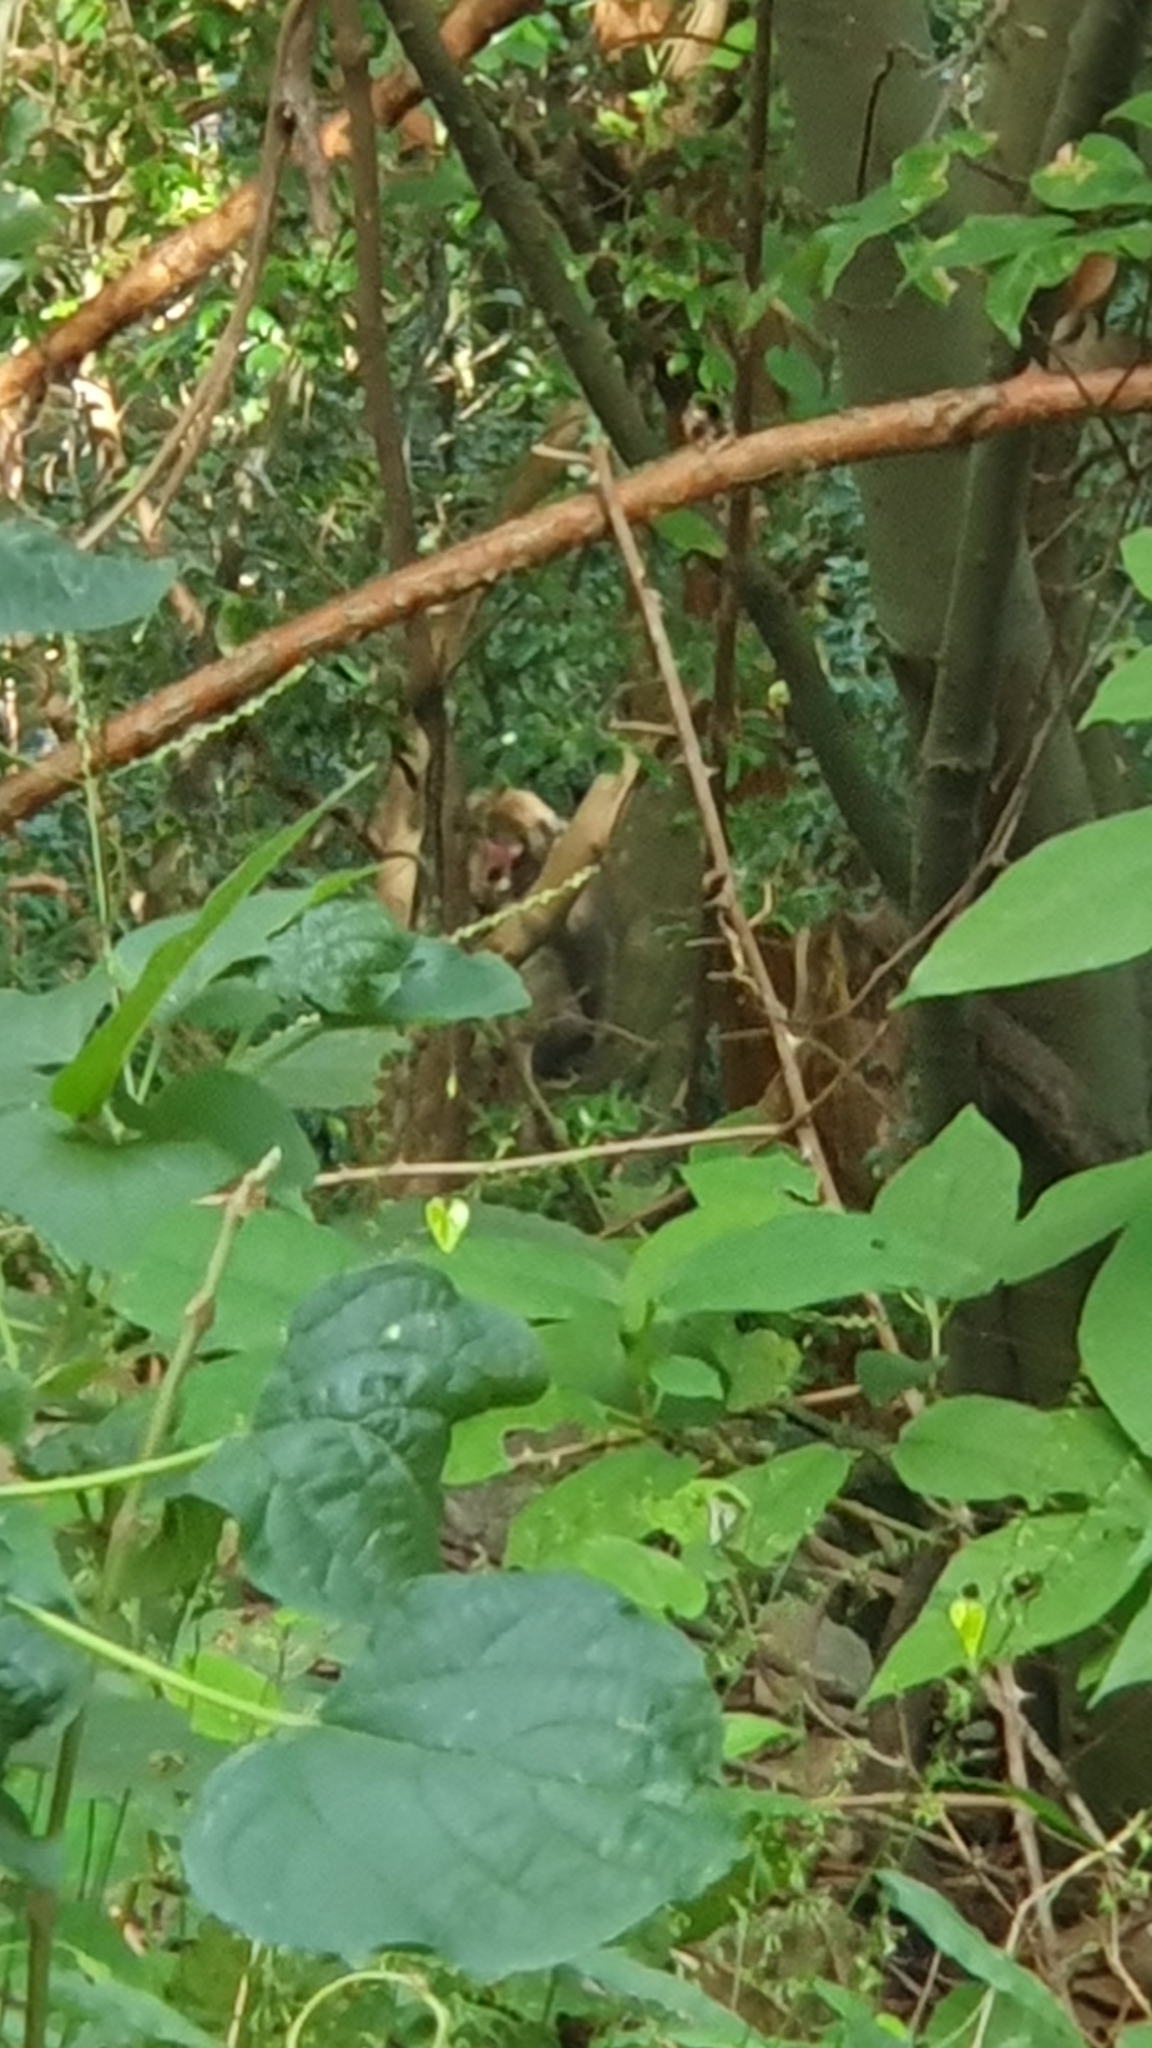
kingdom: Animalia
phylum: Chordata
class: Mammalia
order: Primates
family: Cercopithecidae
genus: Macaca
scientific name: Macaca fuscata
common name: Japanese macaque
